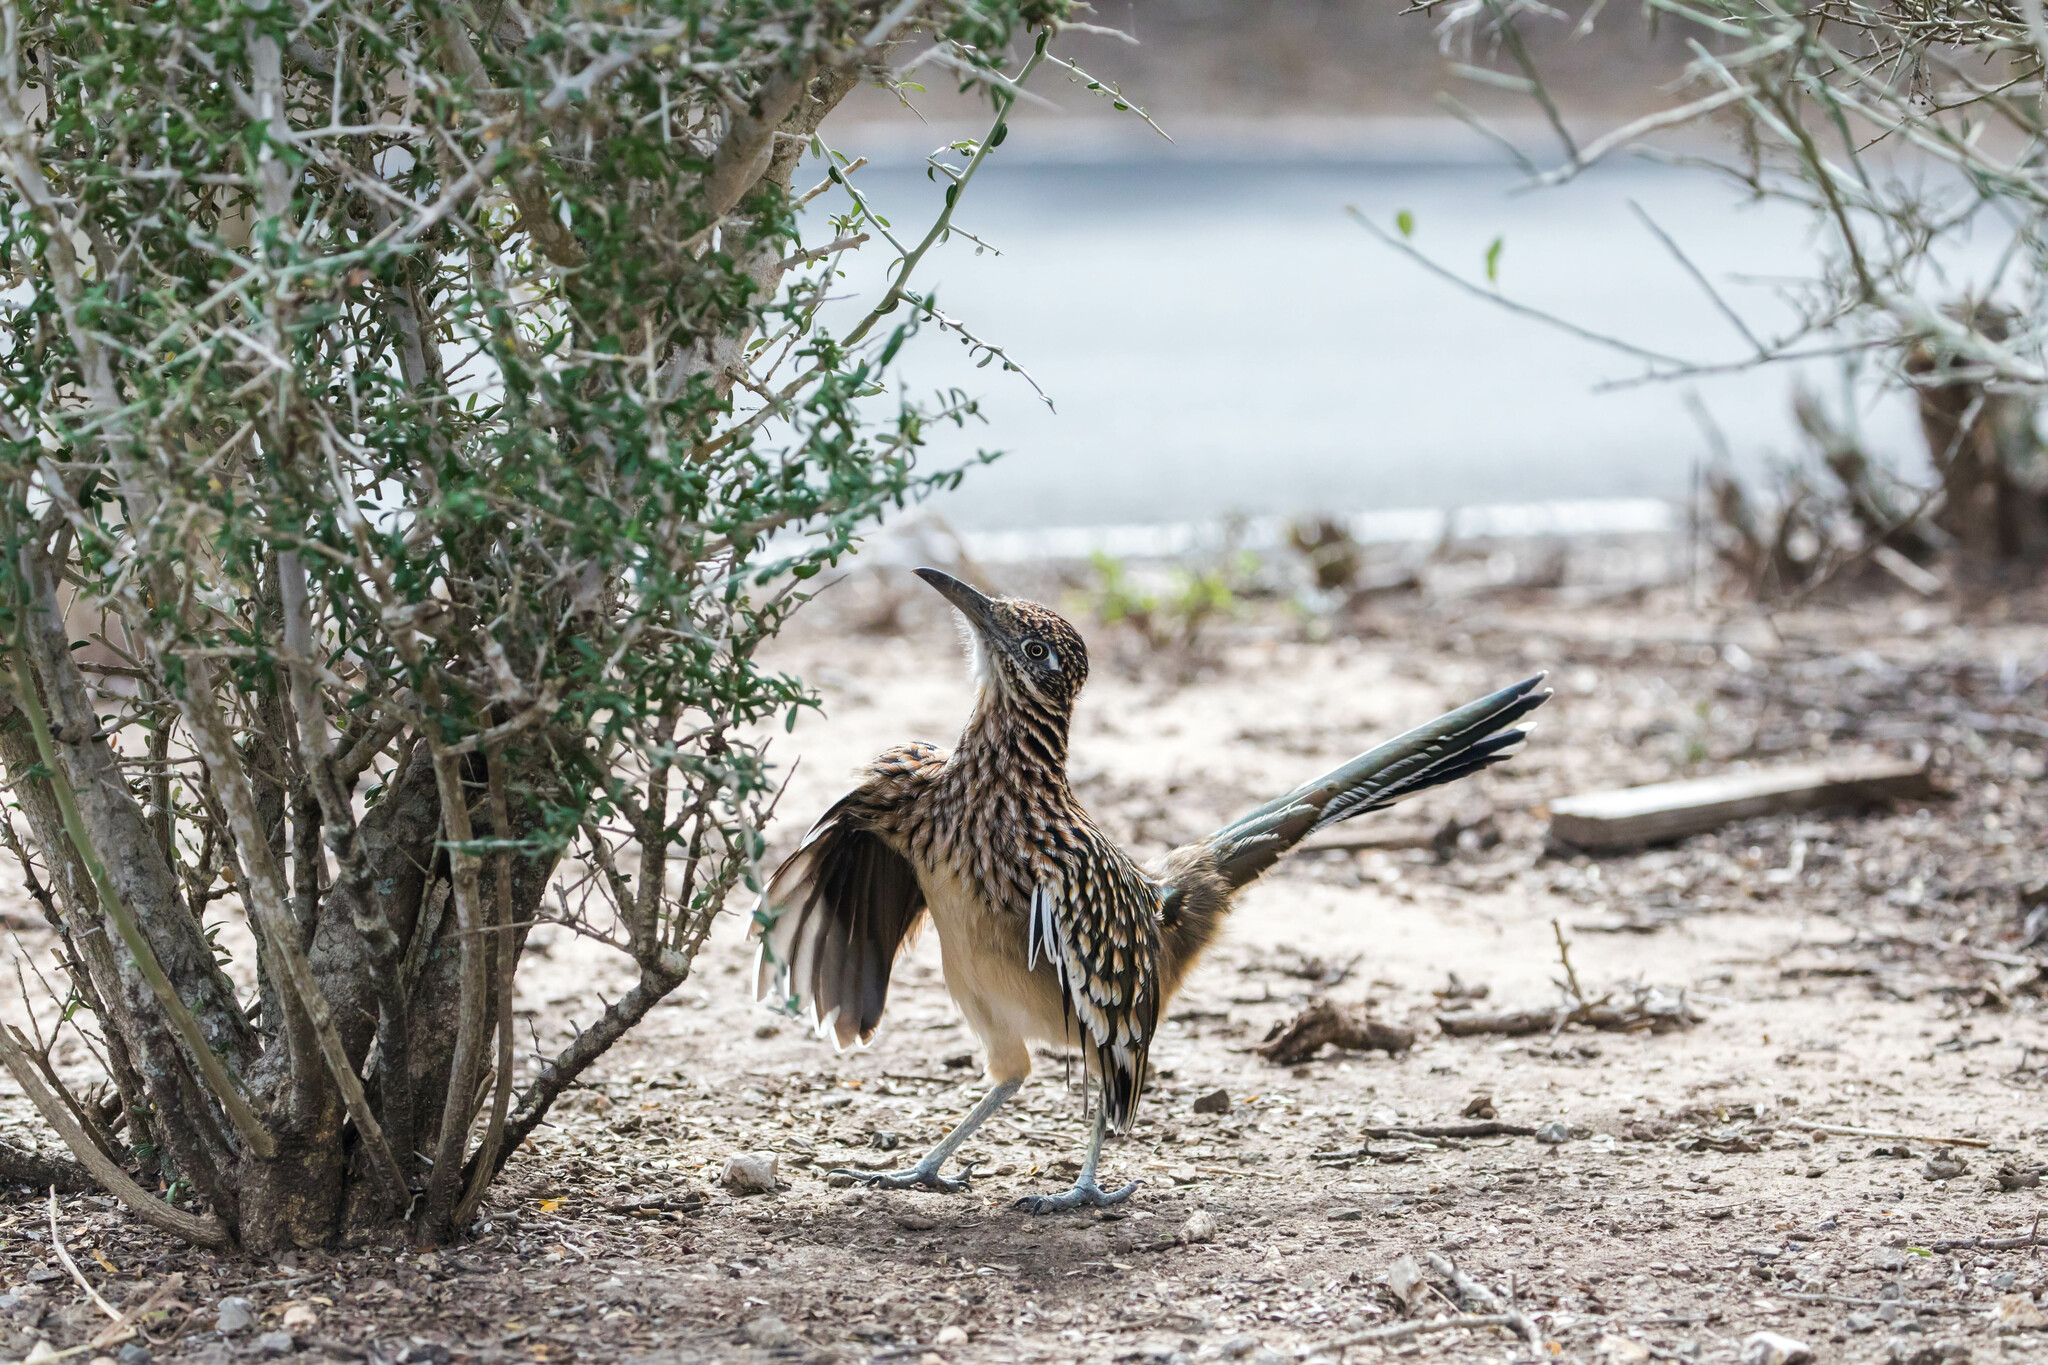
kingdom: Animalia
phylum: Chordata
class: Aves
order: Cuculiformes
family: Cuculidae
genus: Geococcyx
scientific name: Geococcyx californianus
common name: Greater roadrunner
